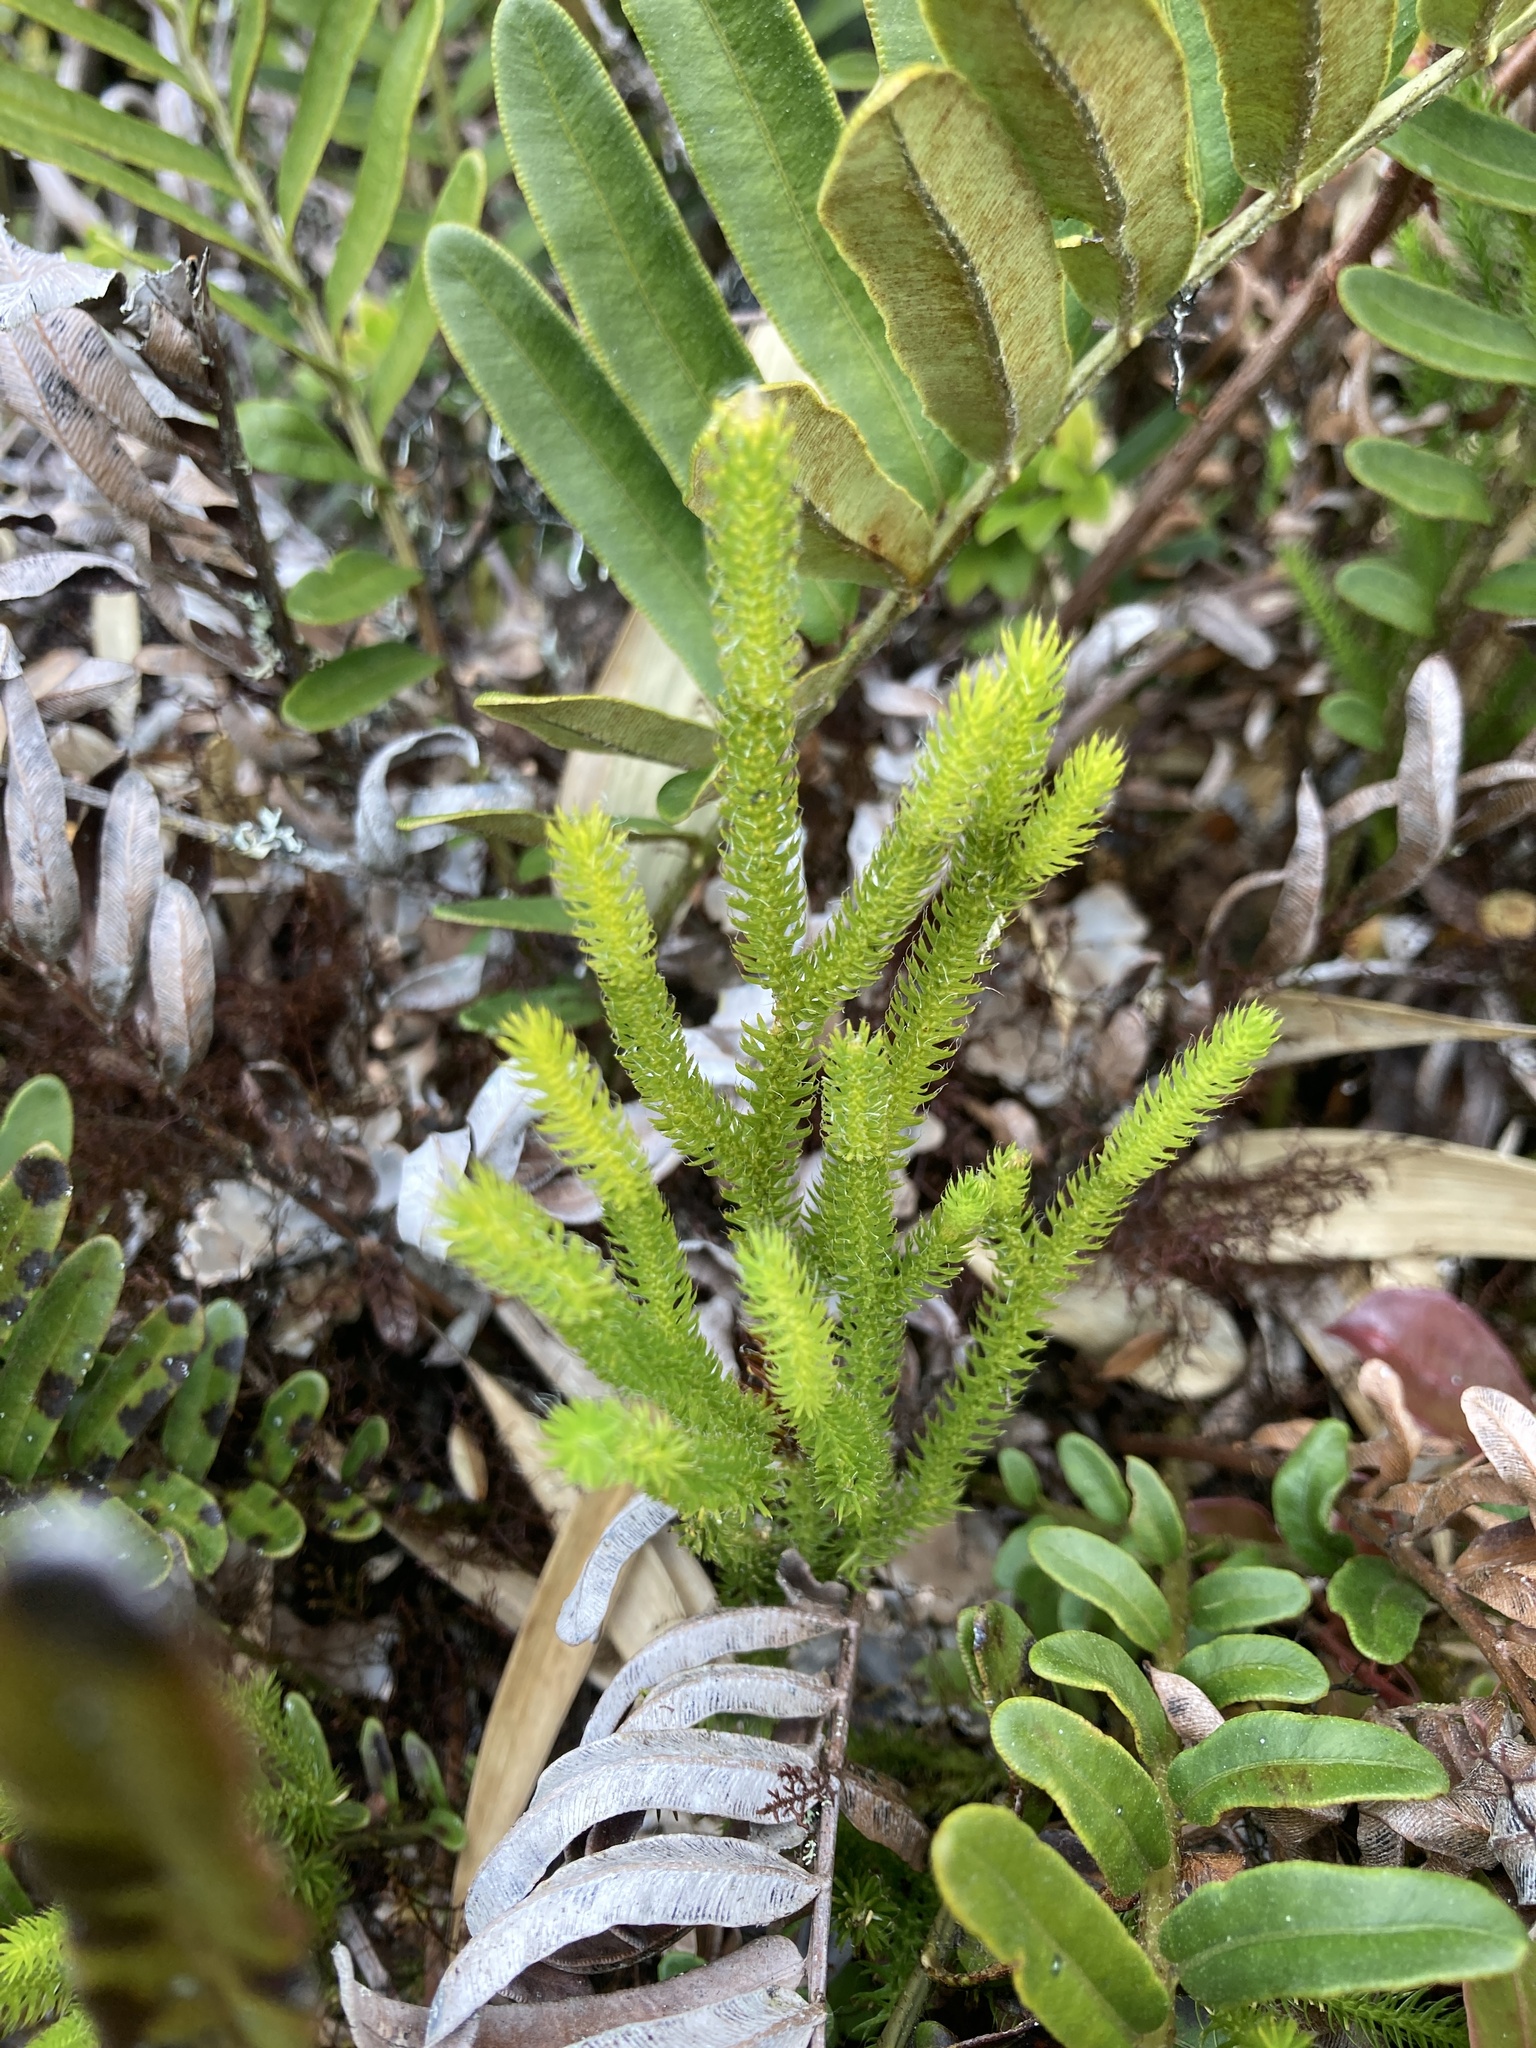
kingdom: Plantae
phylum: Tracheophyta
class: Lycopodiopsida
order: Lycopodiales
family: Lycopodiaceae
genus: Lycopodium
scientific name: Lycopodium clavatum
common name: Stag's-horn clubmoss
